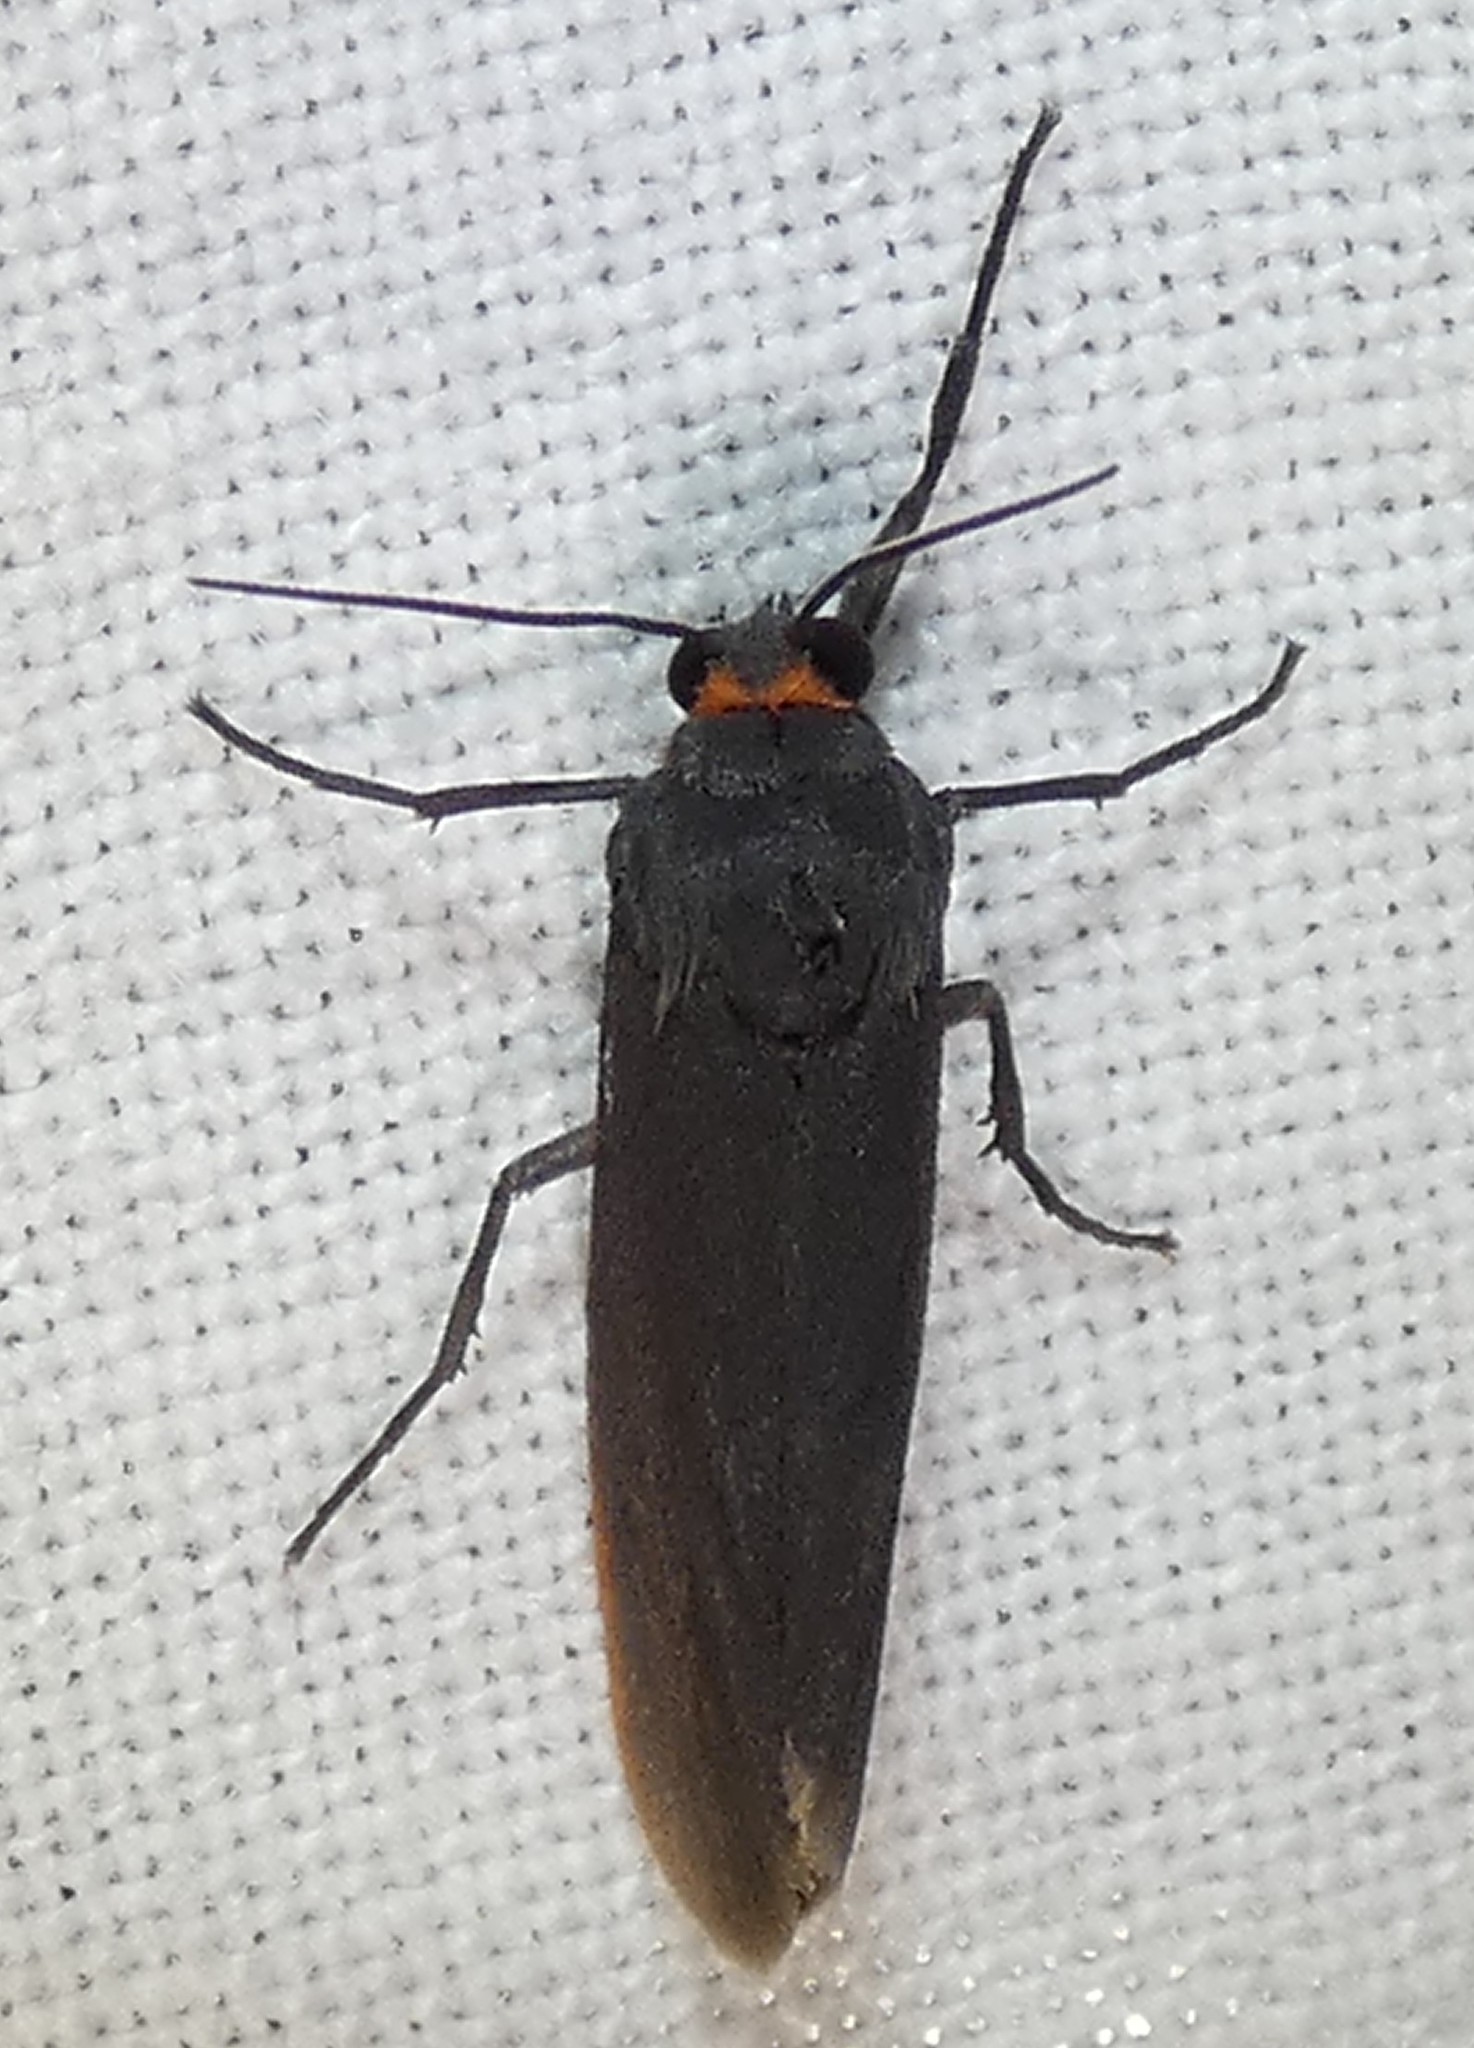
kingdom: Animalia
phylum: Arthropoda
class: Insecta
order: Lepidoptera
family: Erebidae
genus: Virbia
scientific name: Virbia laeta
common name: Joyful holomelina moth
